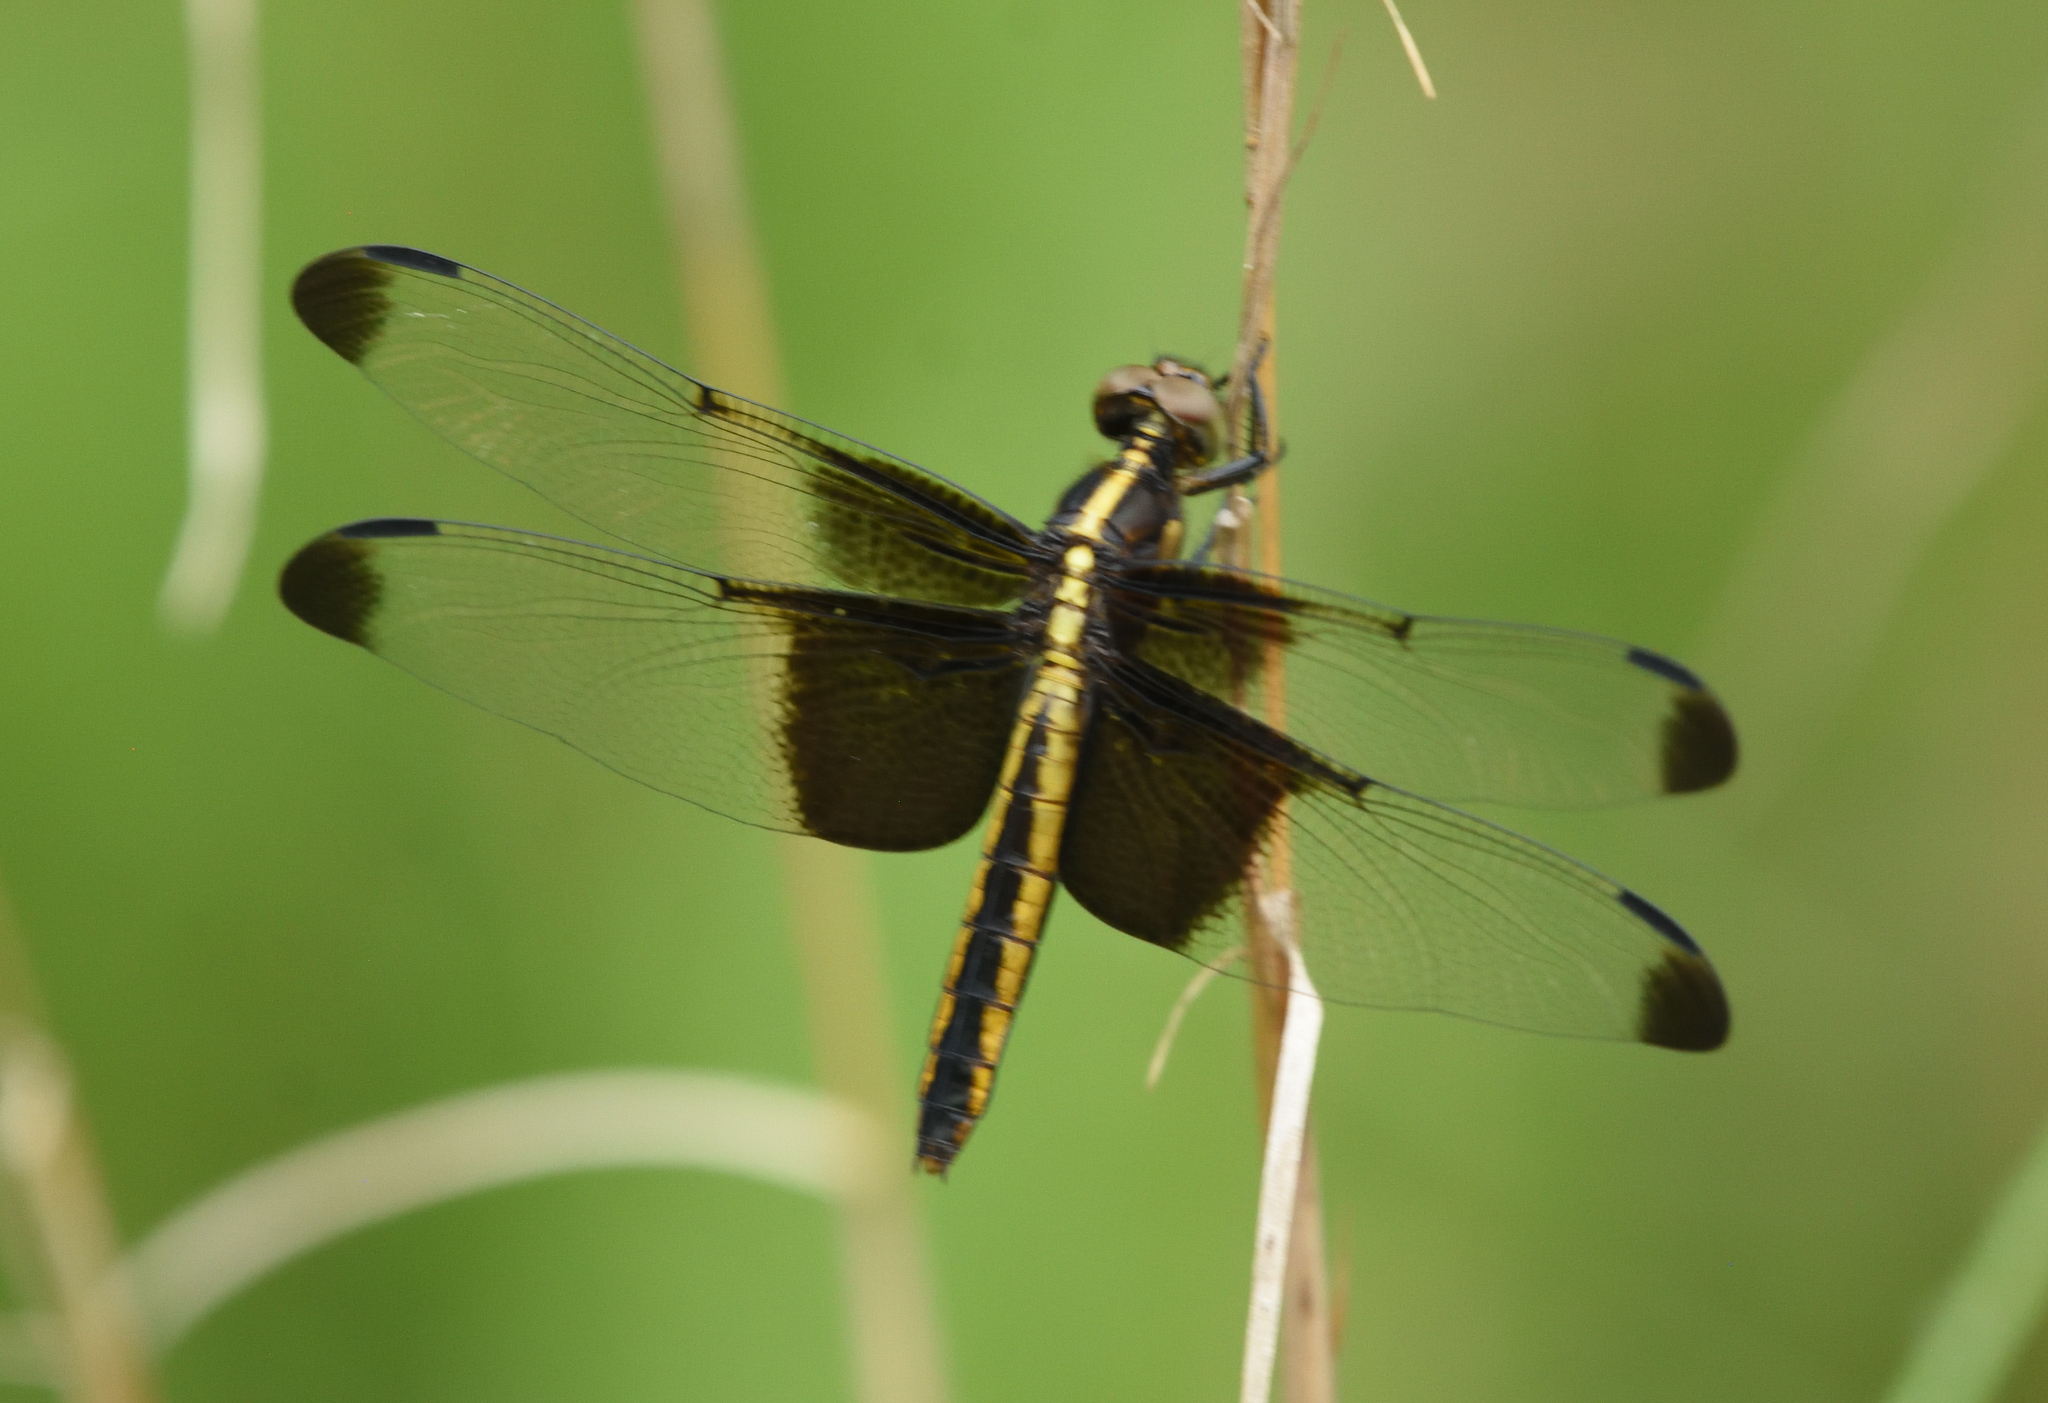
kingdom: Animalia
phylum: Arthropoda
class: Insecta
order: Odonata
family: Libellulidae
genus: Libellula
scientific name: Libellula luctuosa
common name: Widow skimmer
